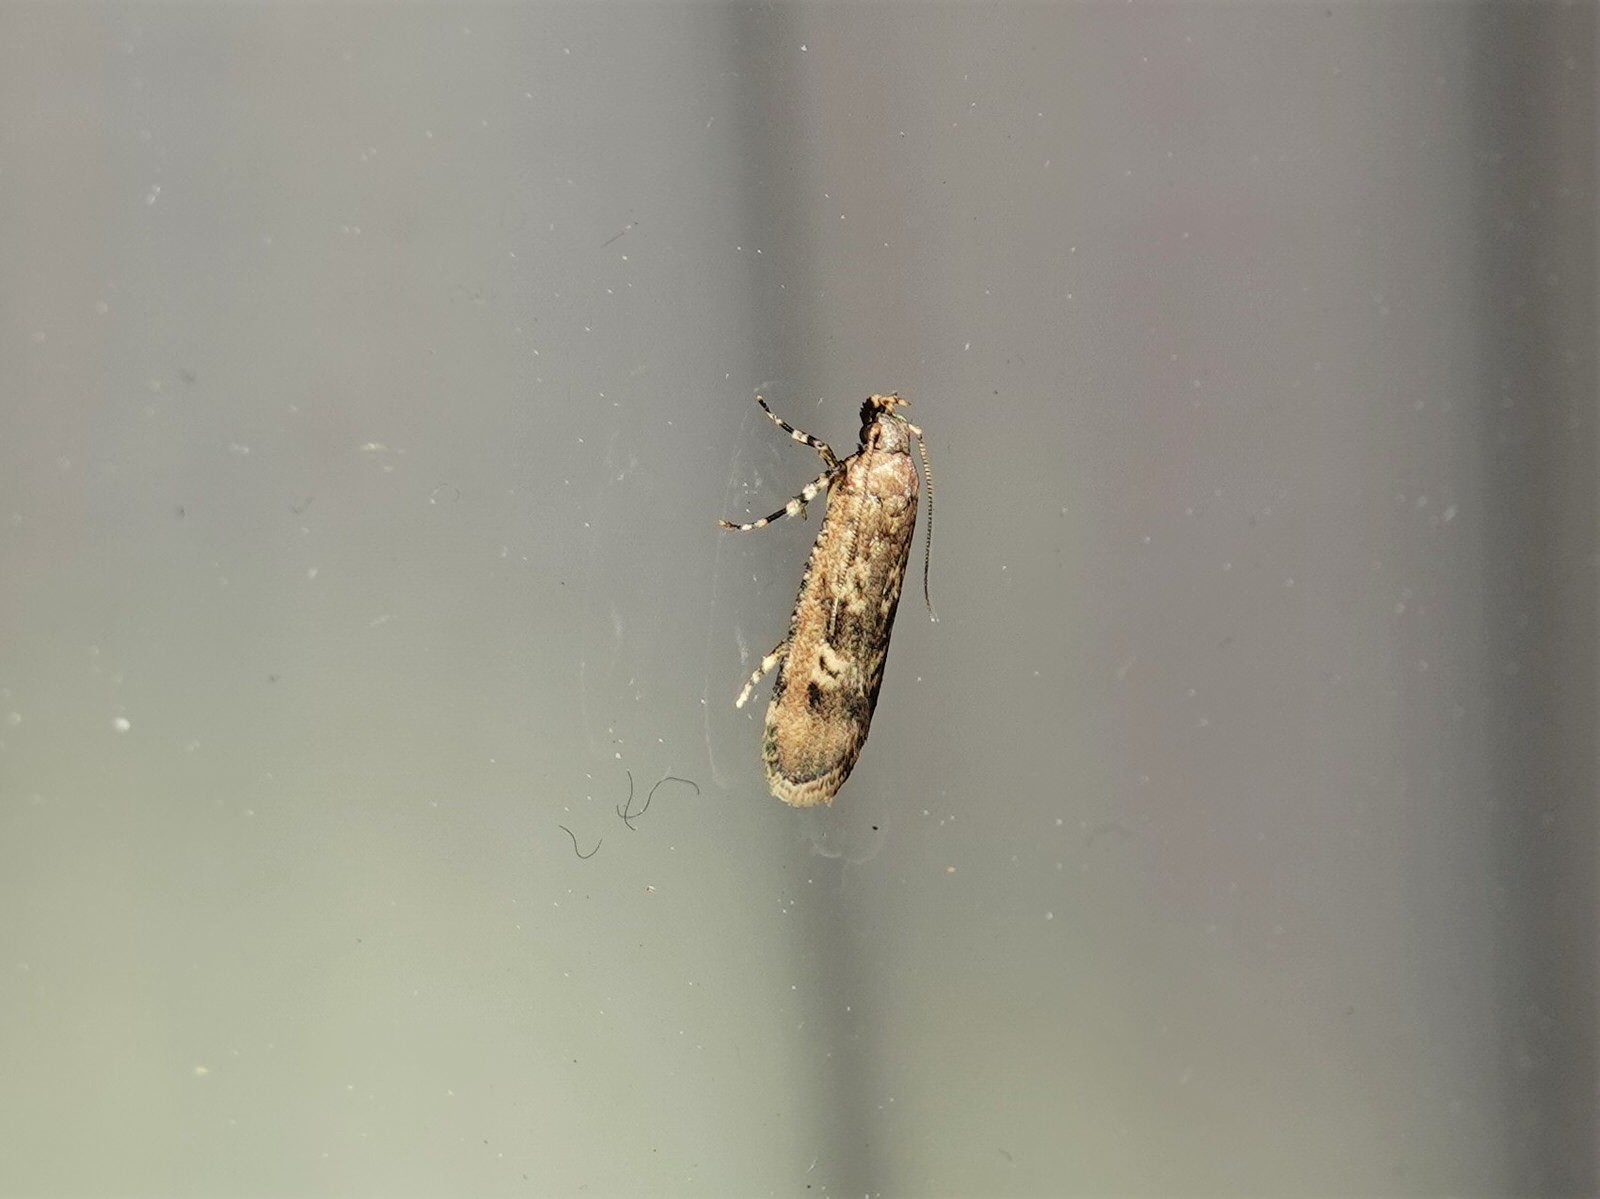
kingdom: Animalia
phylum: Arthropoda
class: Insecta
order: Lepidoptera
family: Gelechiidae
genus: Anisoplaca
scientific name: Anisoplaca cosmia
